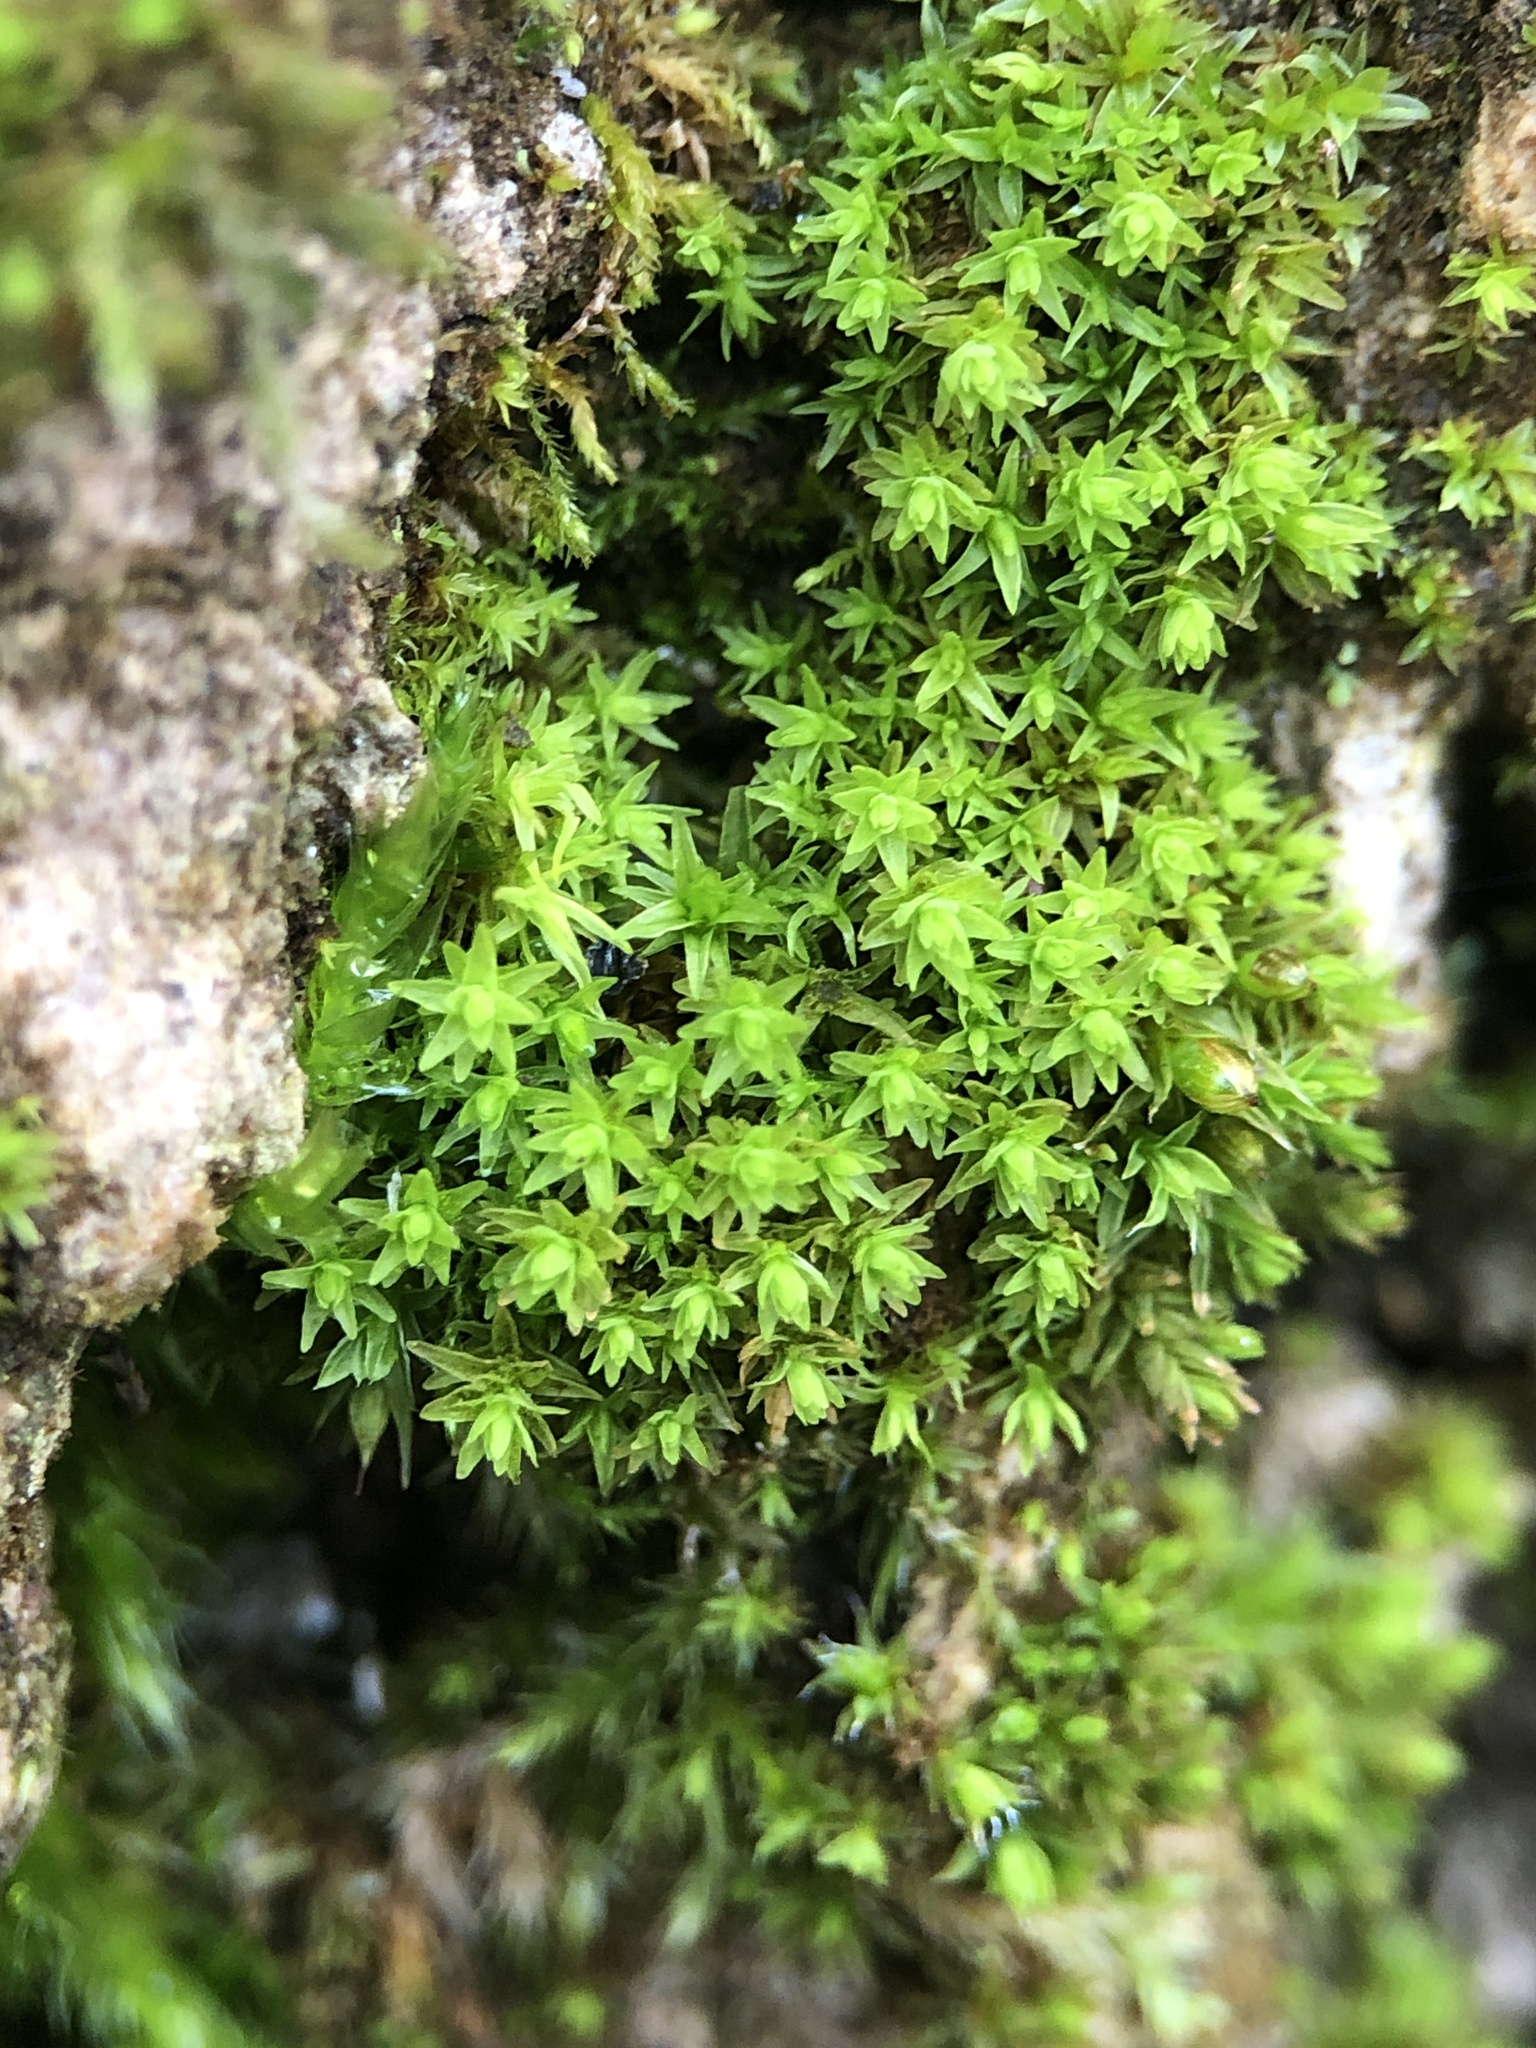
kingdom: Plantae
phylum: Bryophyta
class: Bryopsida
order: Orthotrichales
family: Orthotrichaceae
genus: Nyholmiella
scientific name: Nyholmiella obtusifolia
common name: Blunt-leaved bristle-moss
